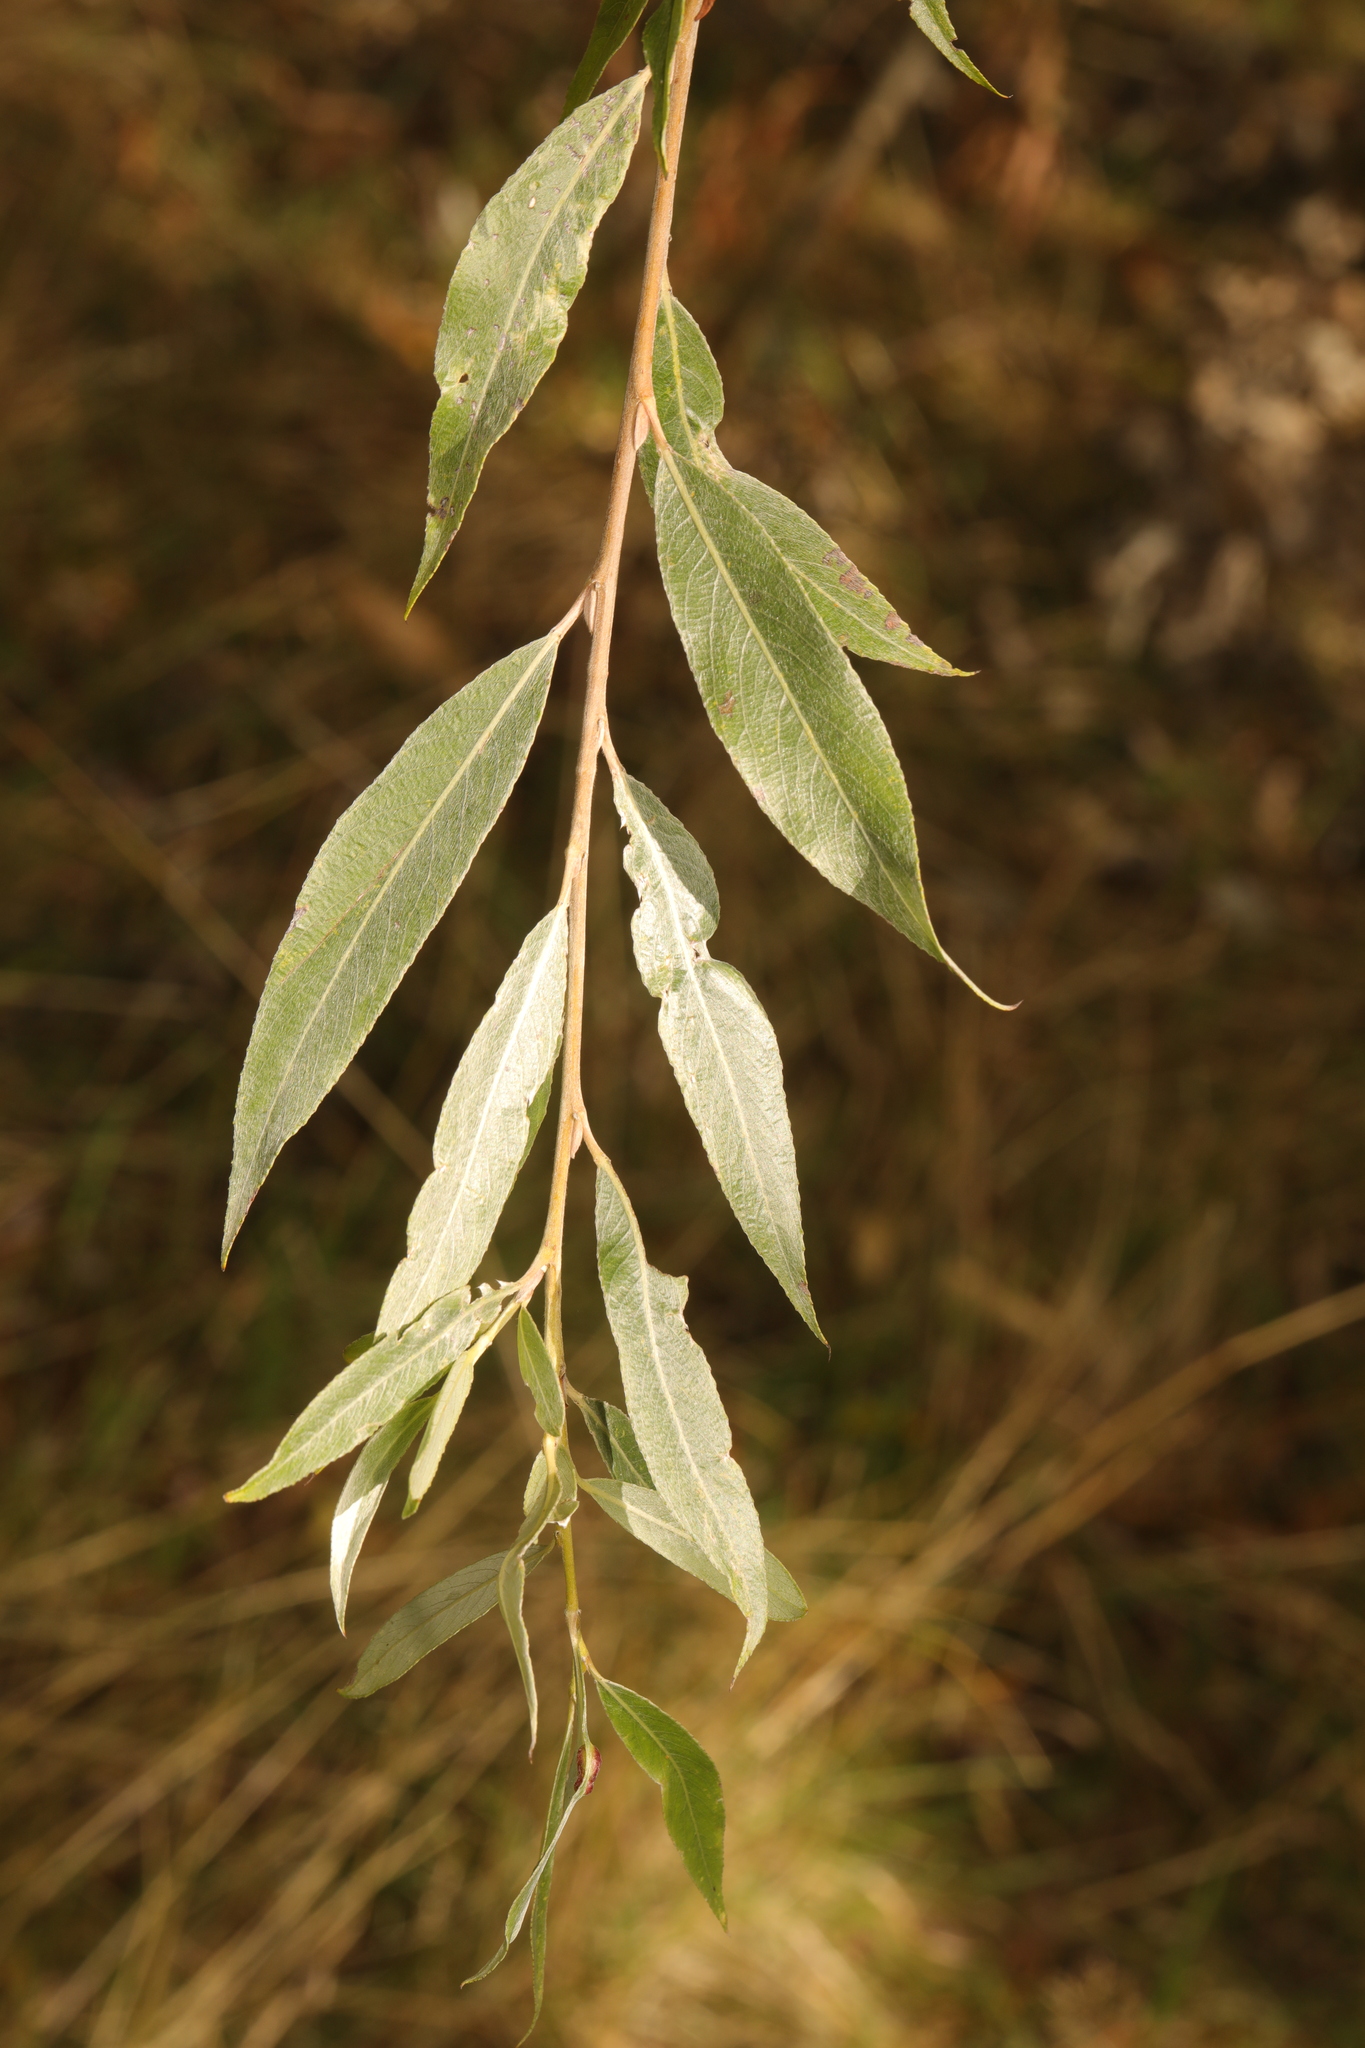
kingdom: Plantae
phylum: Tracheophyta
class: Magnoliopsida
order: Malpighiales
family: Salicaceae
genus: Salix
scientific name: Salix alba
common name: White willow
